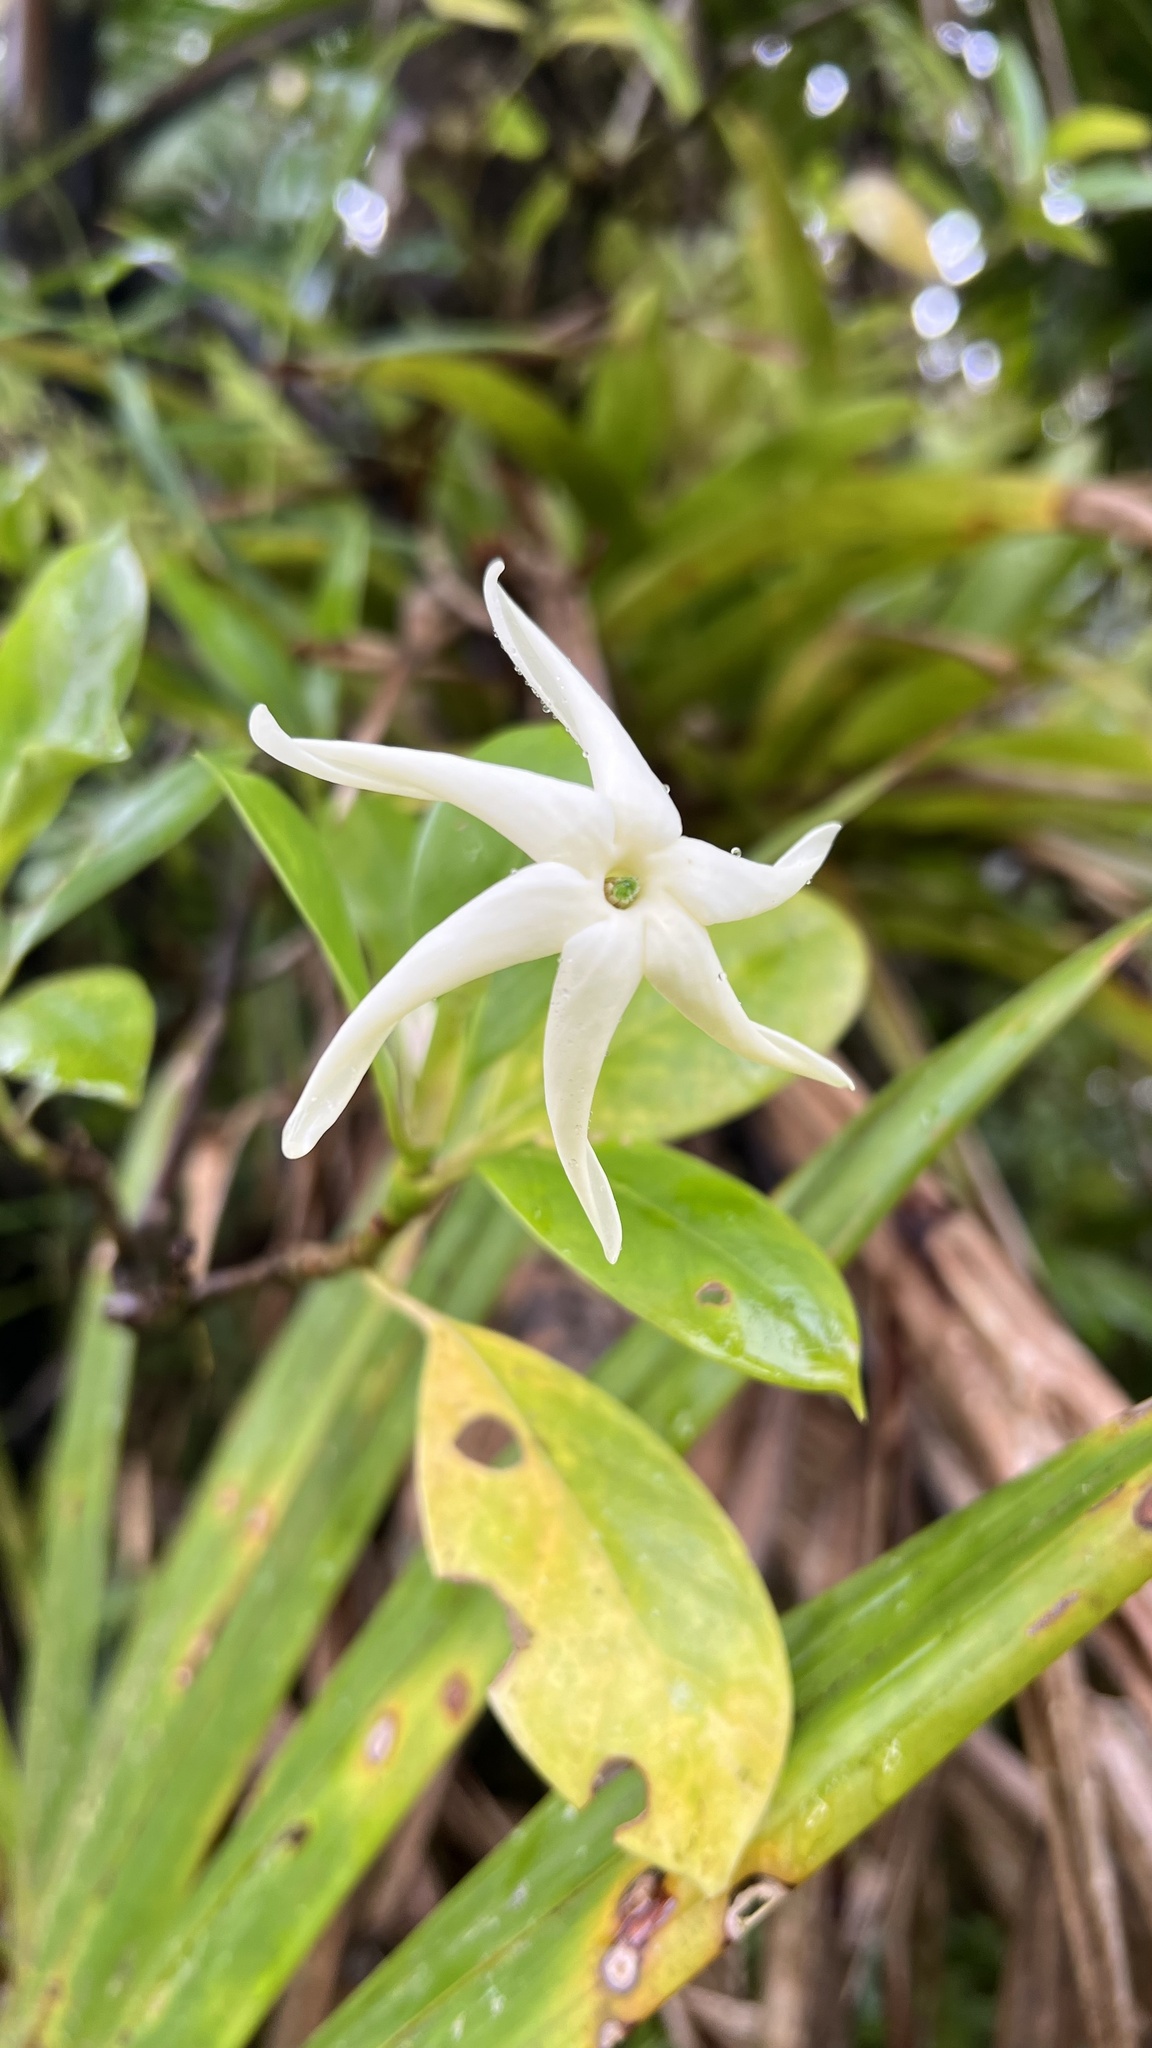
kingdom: Plantae
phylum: Tracheophyta
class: Magnoliopsida
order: Gentianales
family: Rubiaceae
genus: Hillia
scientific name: Hillia parasitica
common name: Morning star
